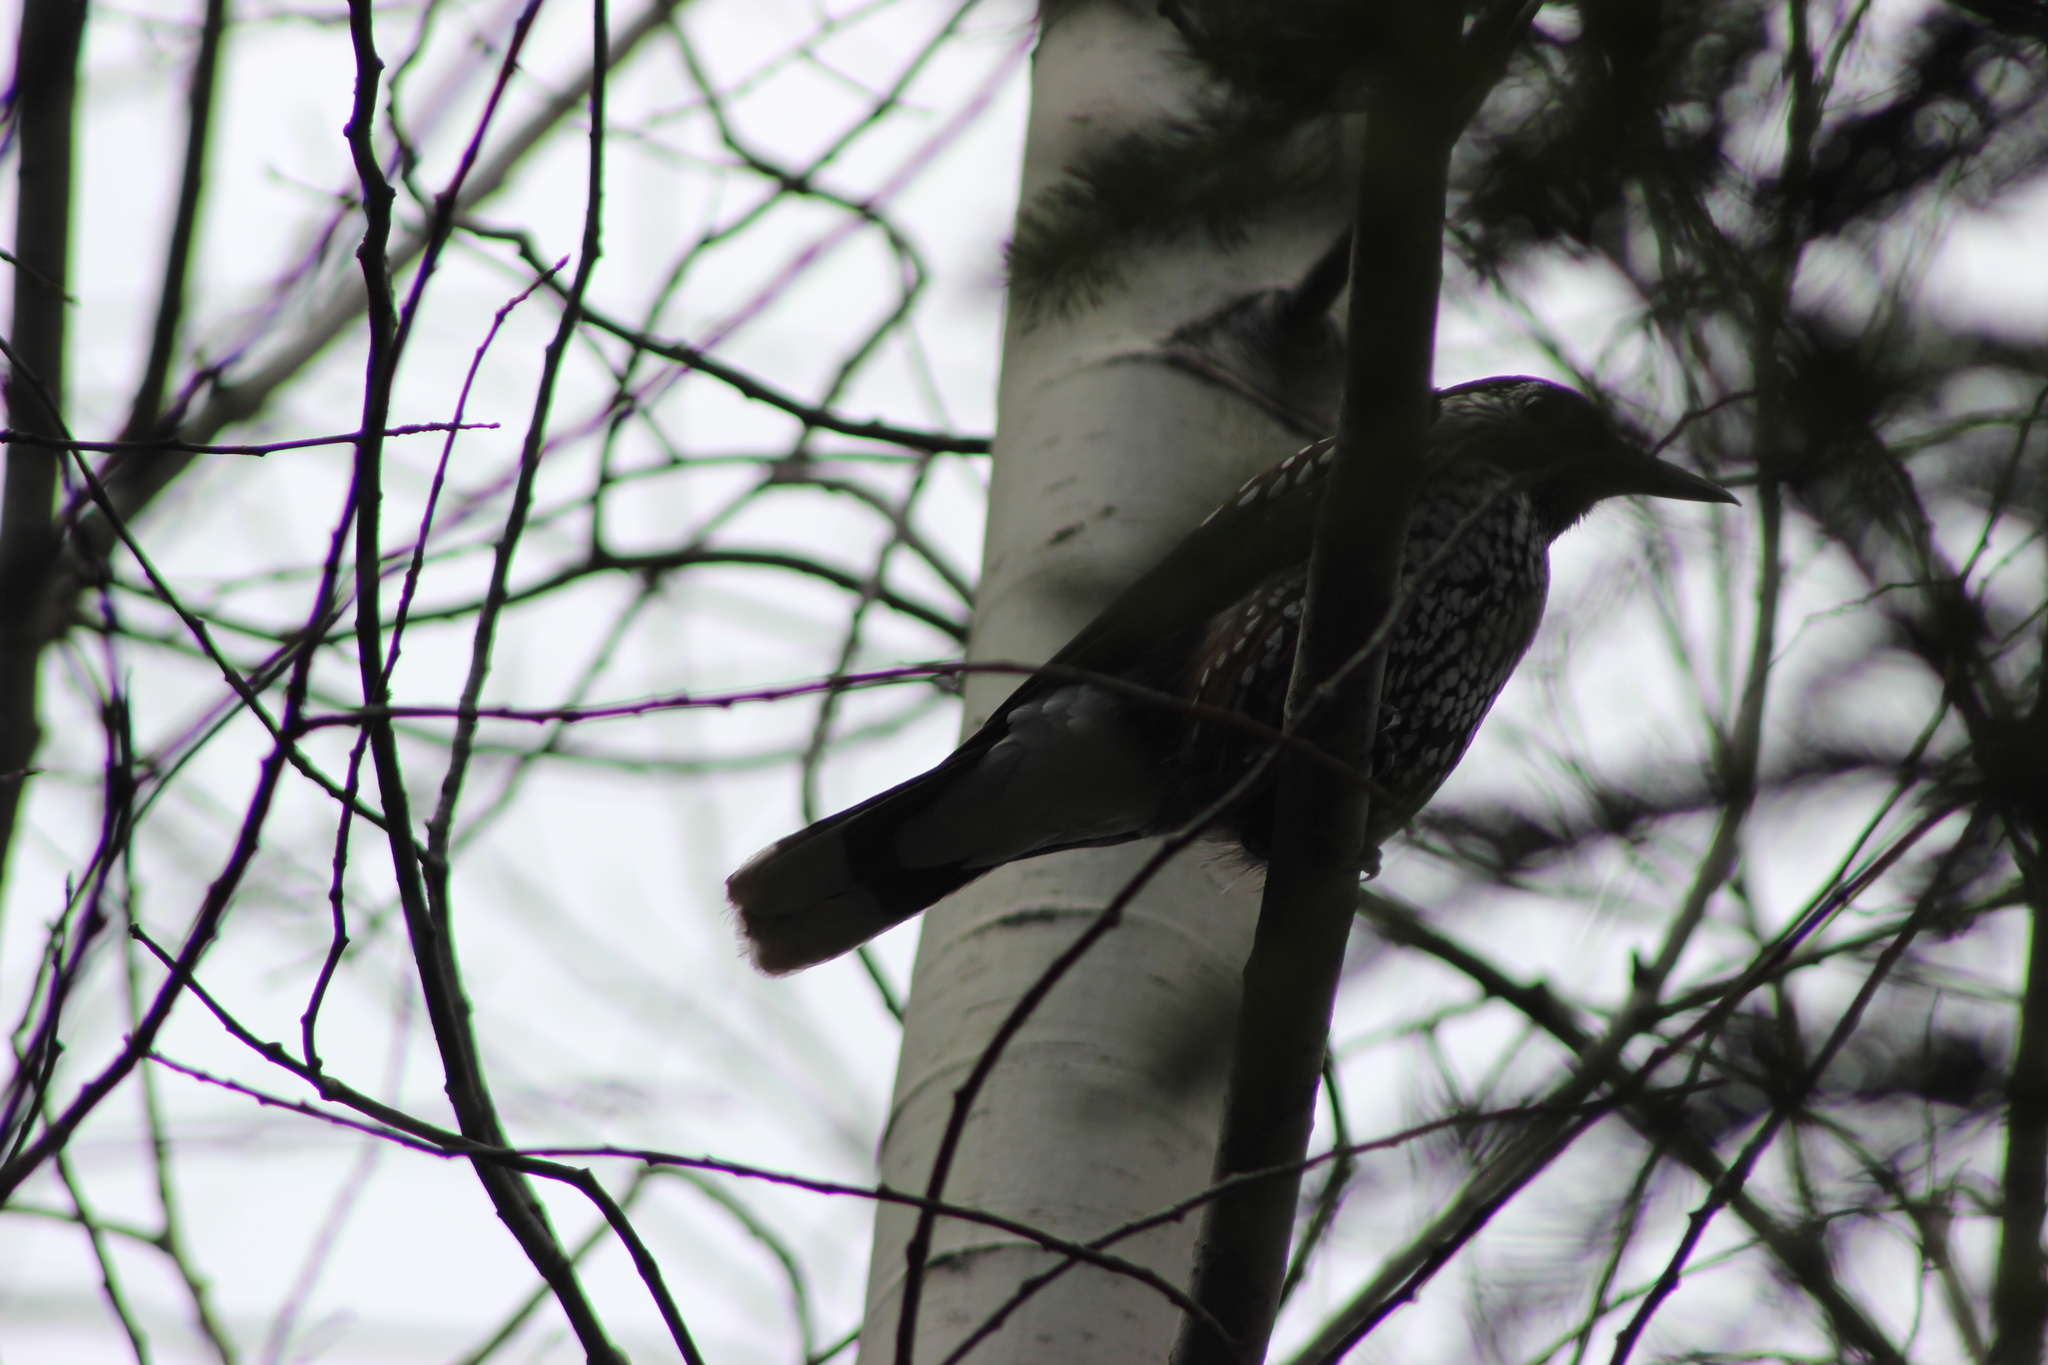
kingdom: Animalia
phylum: Chordata
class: Aves
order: Passeriformes
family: Corvidae
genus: Nucifraga
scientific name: Nucifraga caryocatactes
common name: Spotted nutcracker
